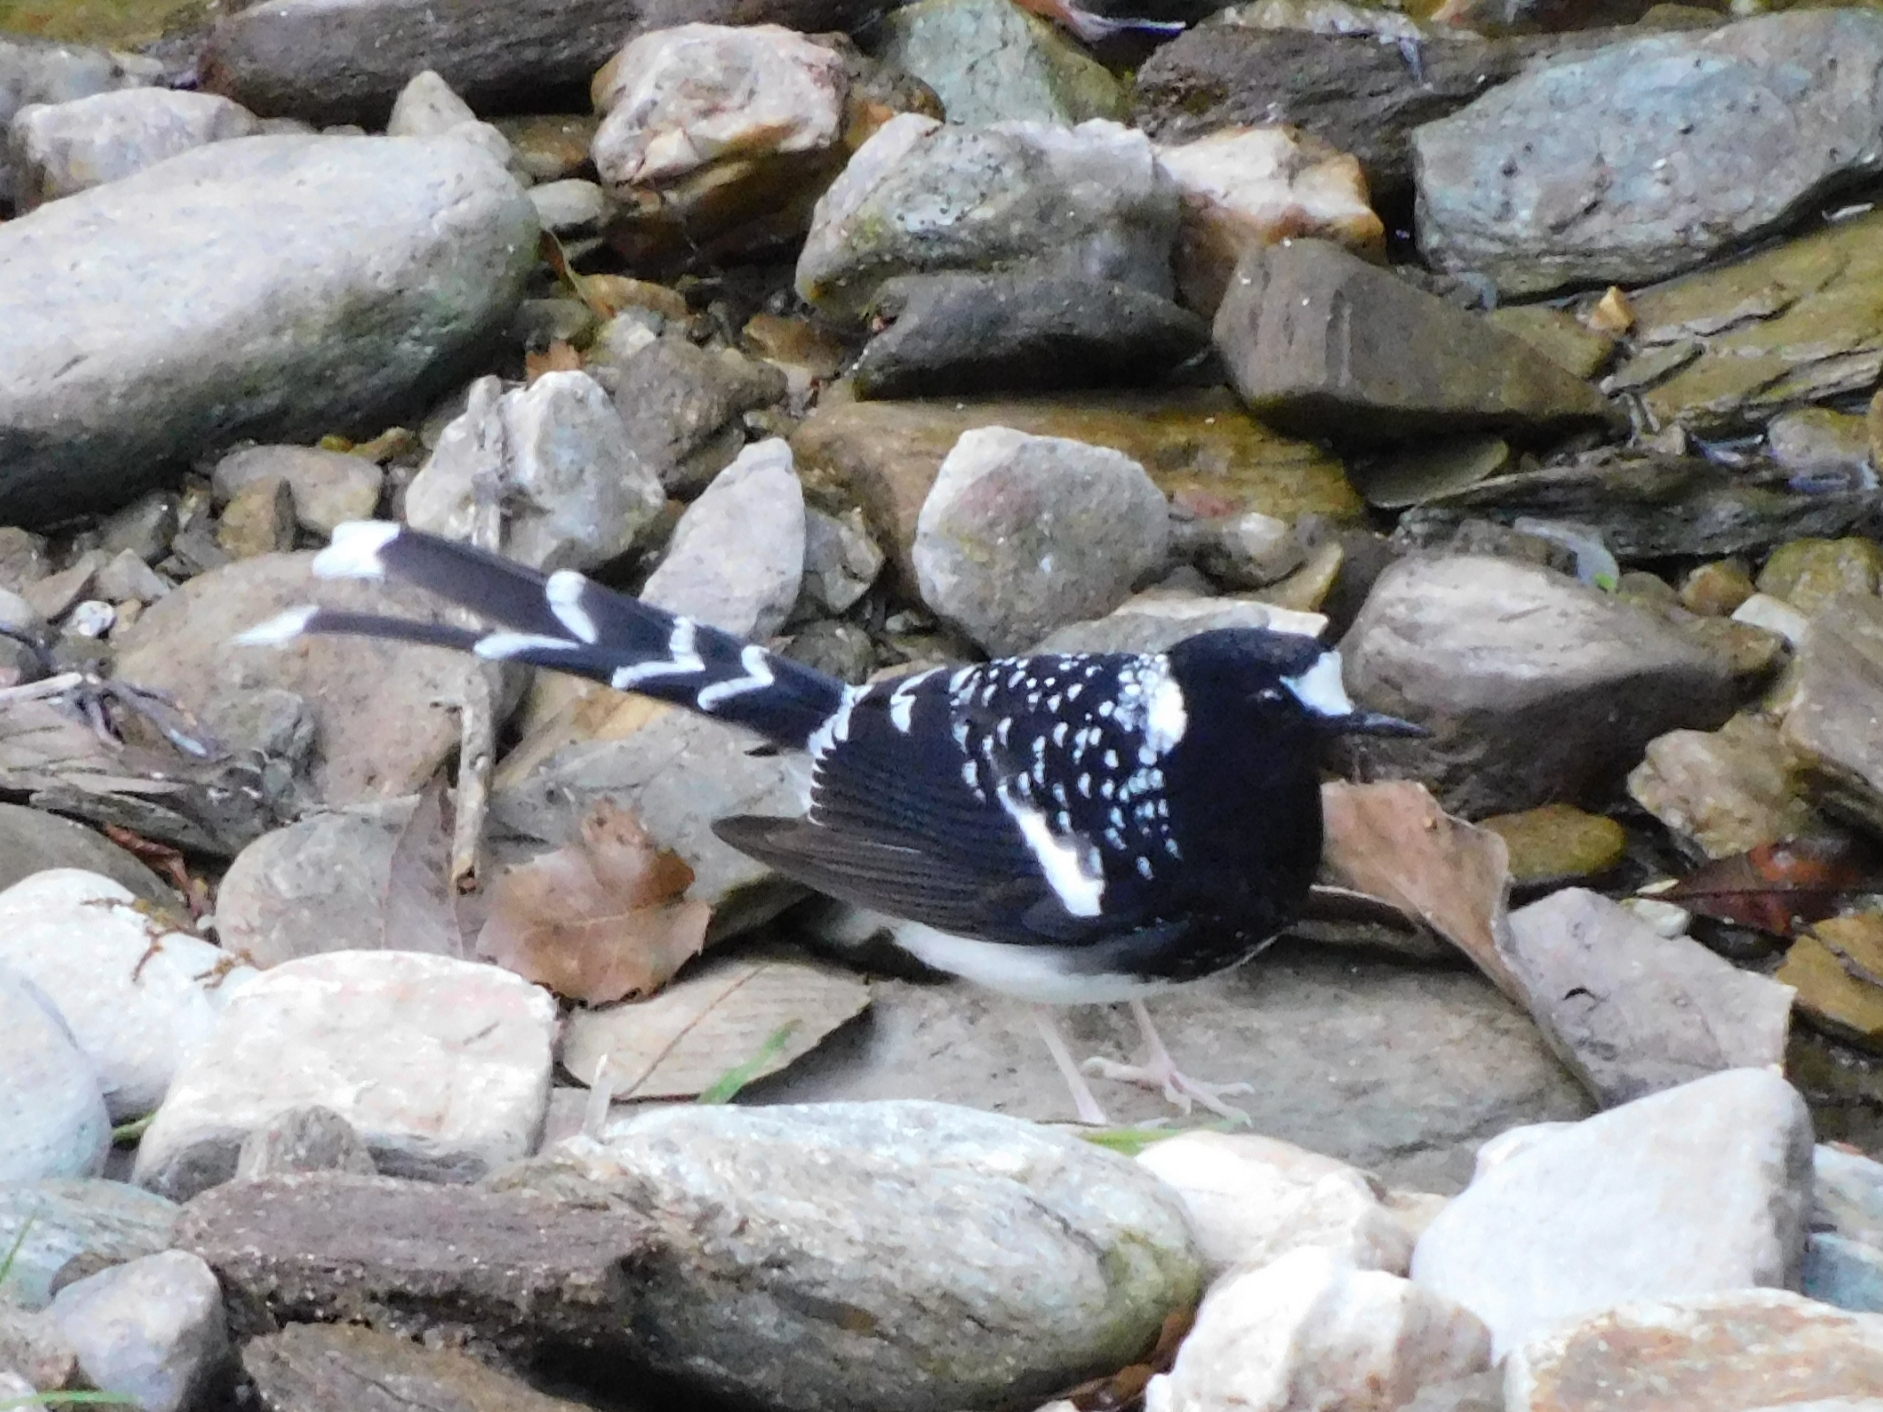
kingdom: Animalia
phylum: Chordata
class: Aves
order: Passeriformes
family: Muscicapidae
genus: Enicurus
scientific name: Enicurus maculatus
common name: Spotted forktail
